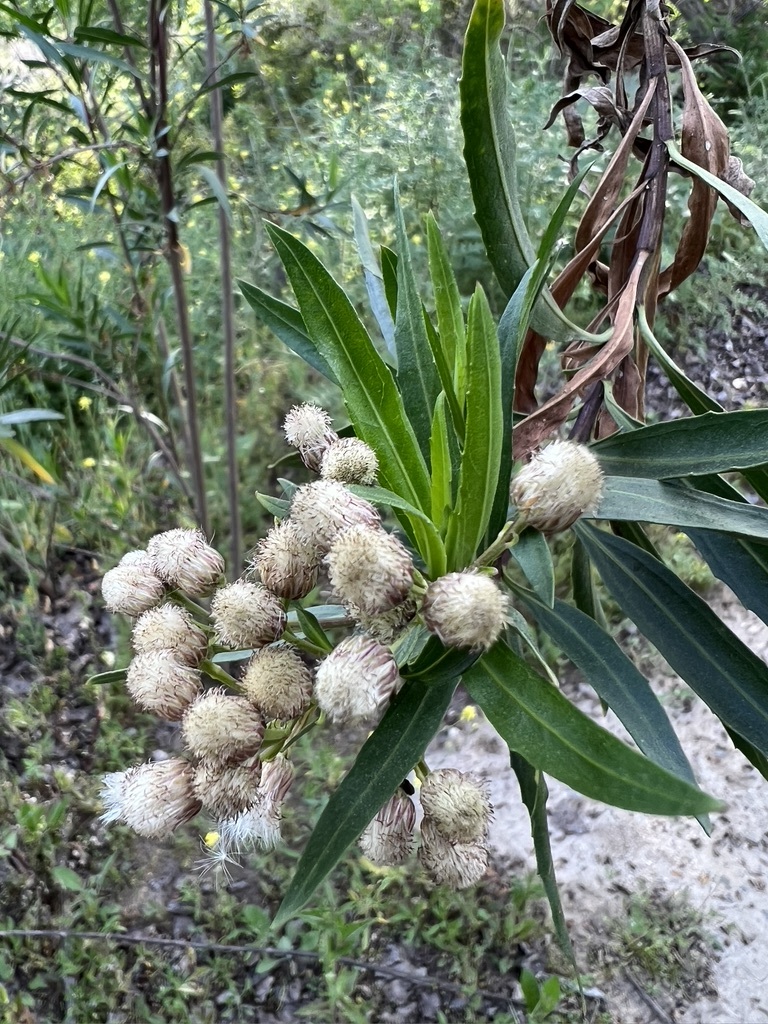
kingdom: Plantae
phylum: Tracheophyta
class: Magnoliopsida
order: Asterales
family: Asteraceae
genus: Baccharis
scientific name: Baccharis salicifolia
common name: Sticky baccharis
